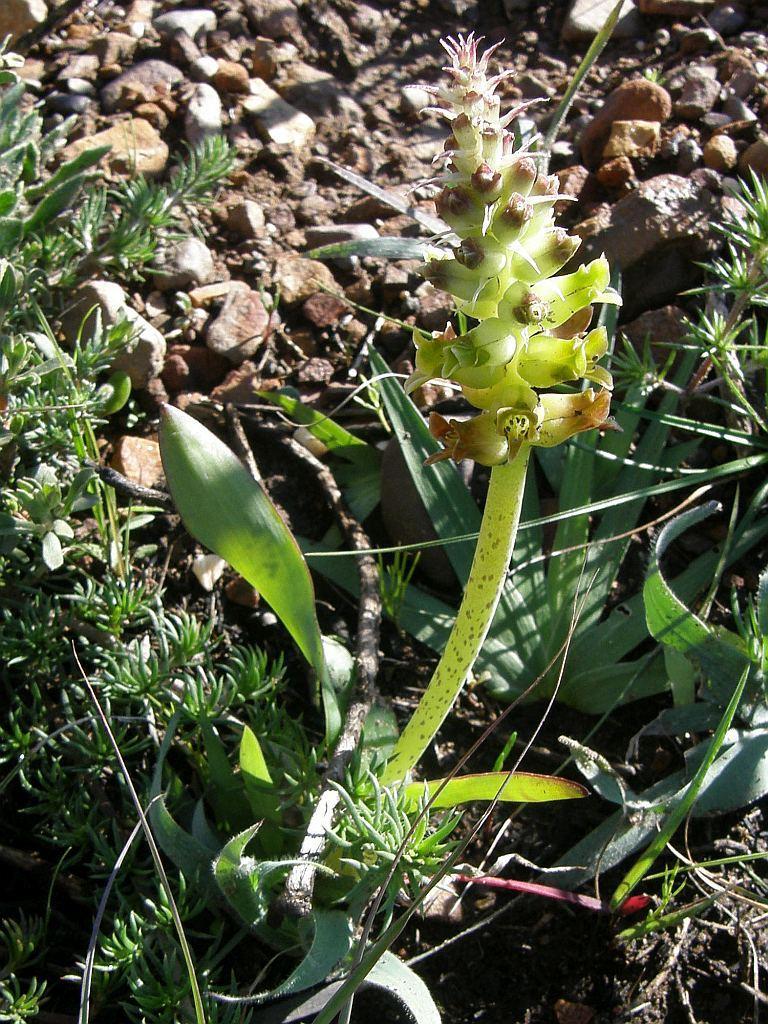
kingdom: Plantae
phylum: Tracheophyta
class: Liliopsida
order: Asparagales
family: Asparagaceae
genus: Lachenalia
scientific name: Lachenalia lutea
